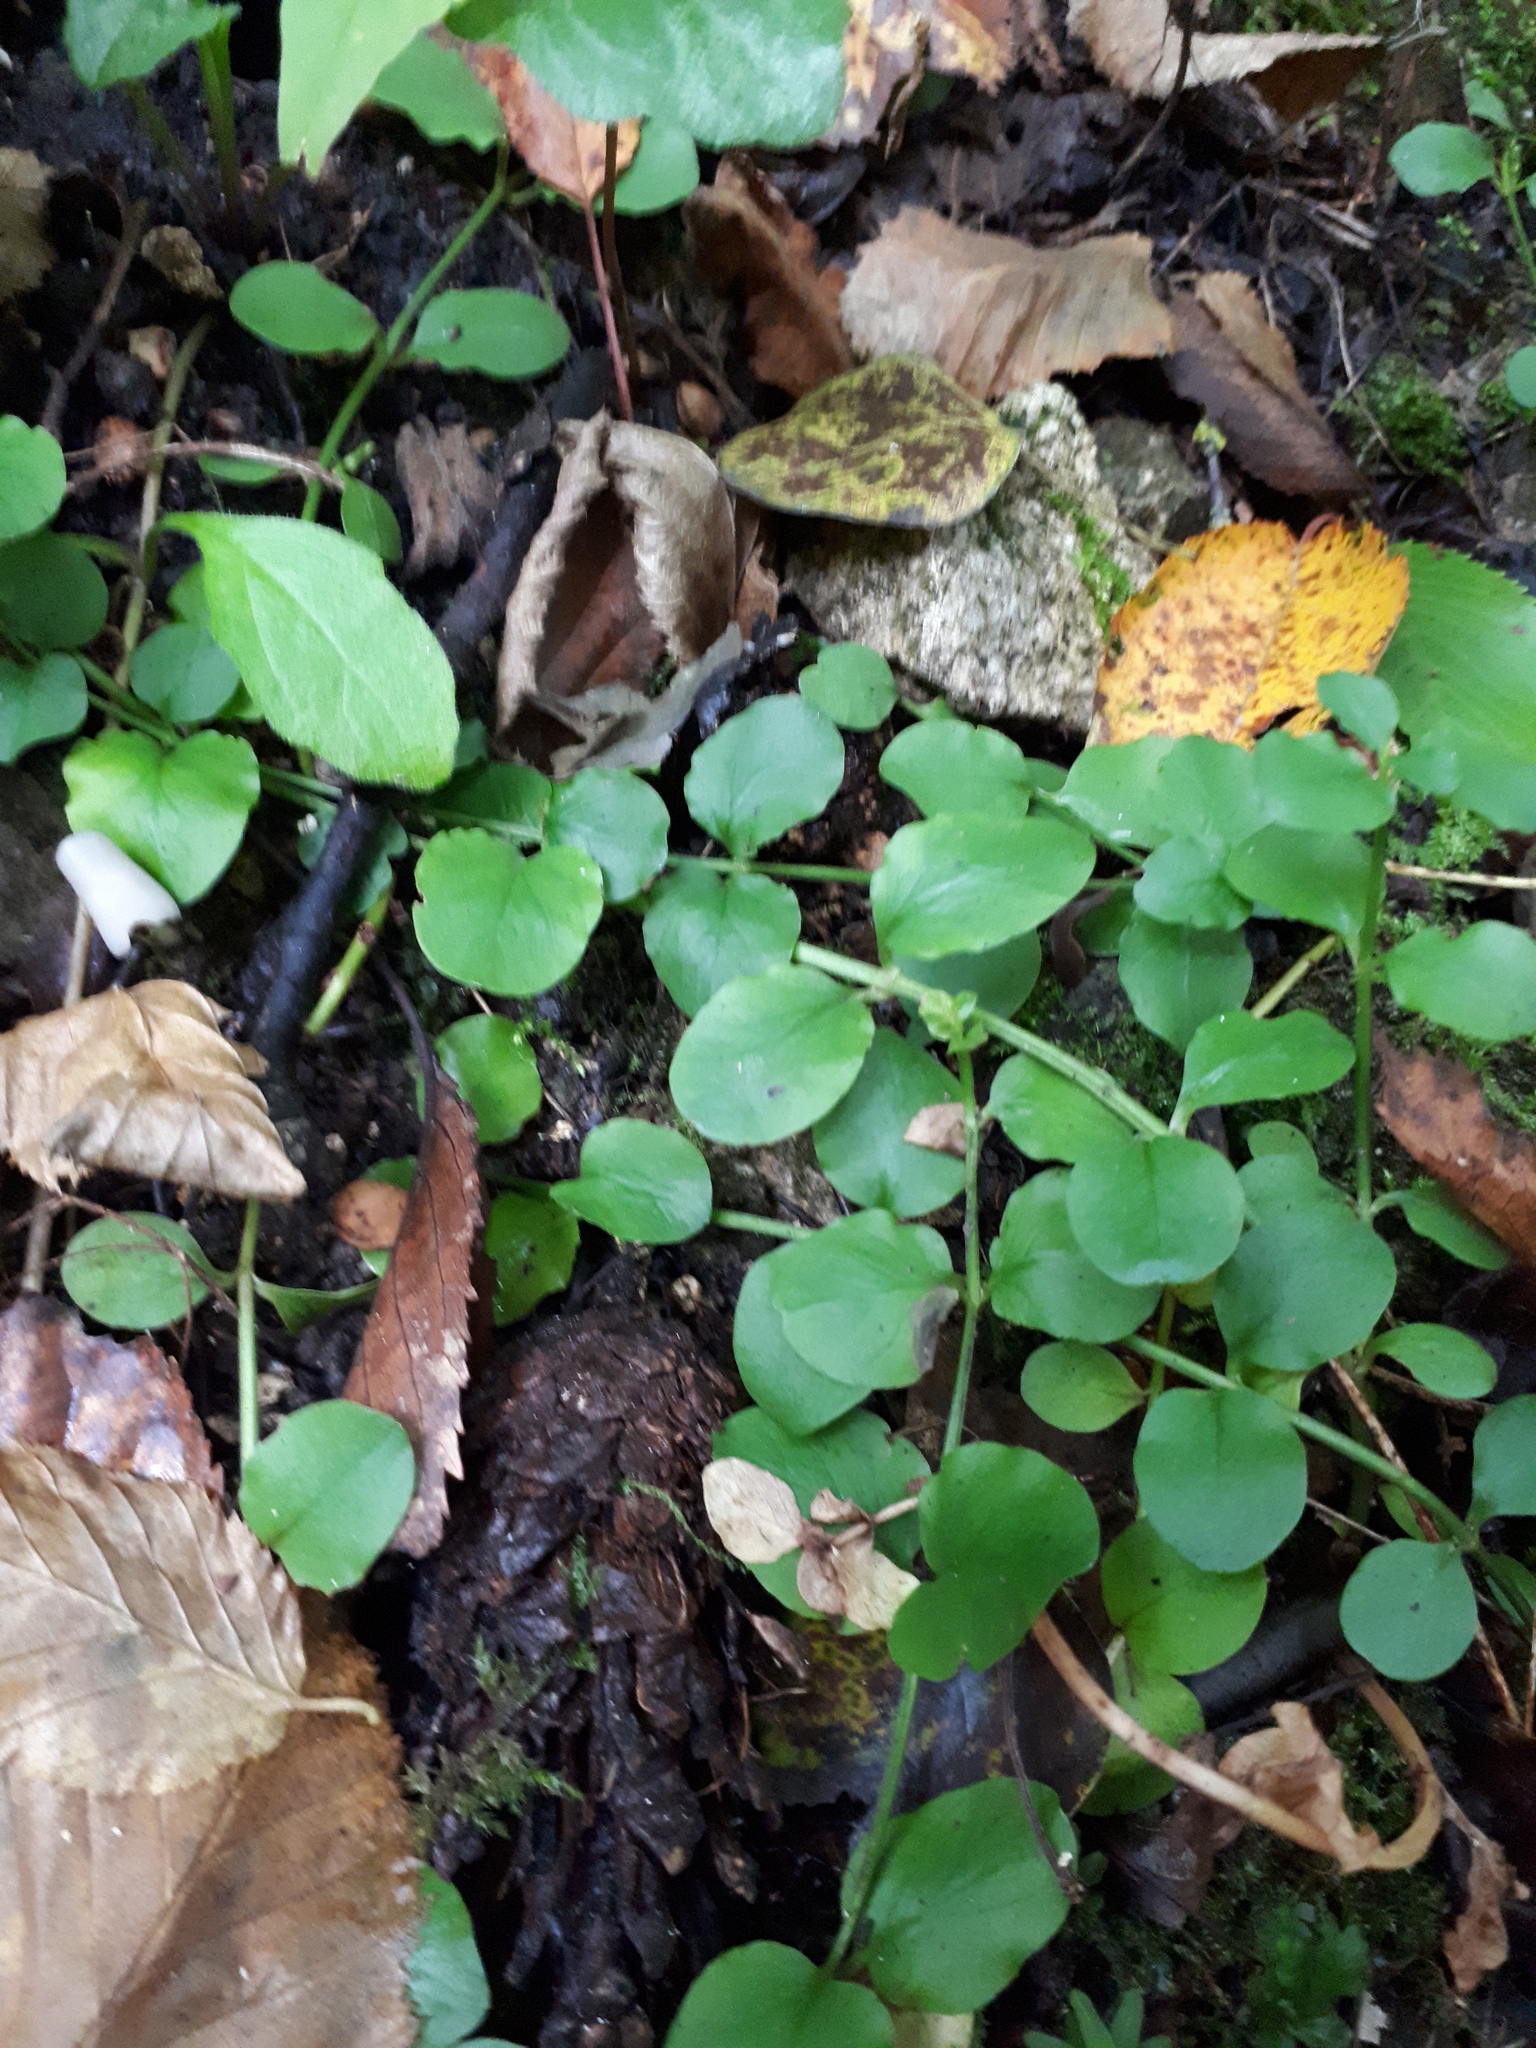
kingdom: Plantae
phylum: Tracheophyta
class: Magnoliopsida
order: Ericales
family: Primulaceae
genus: Lysimachia
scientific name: Lysimachia nummularia
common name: Moneywort
